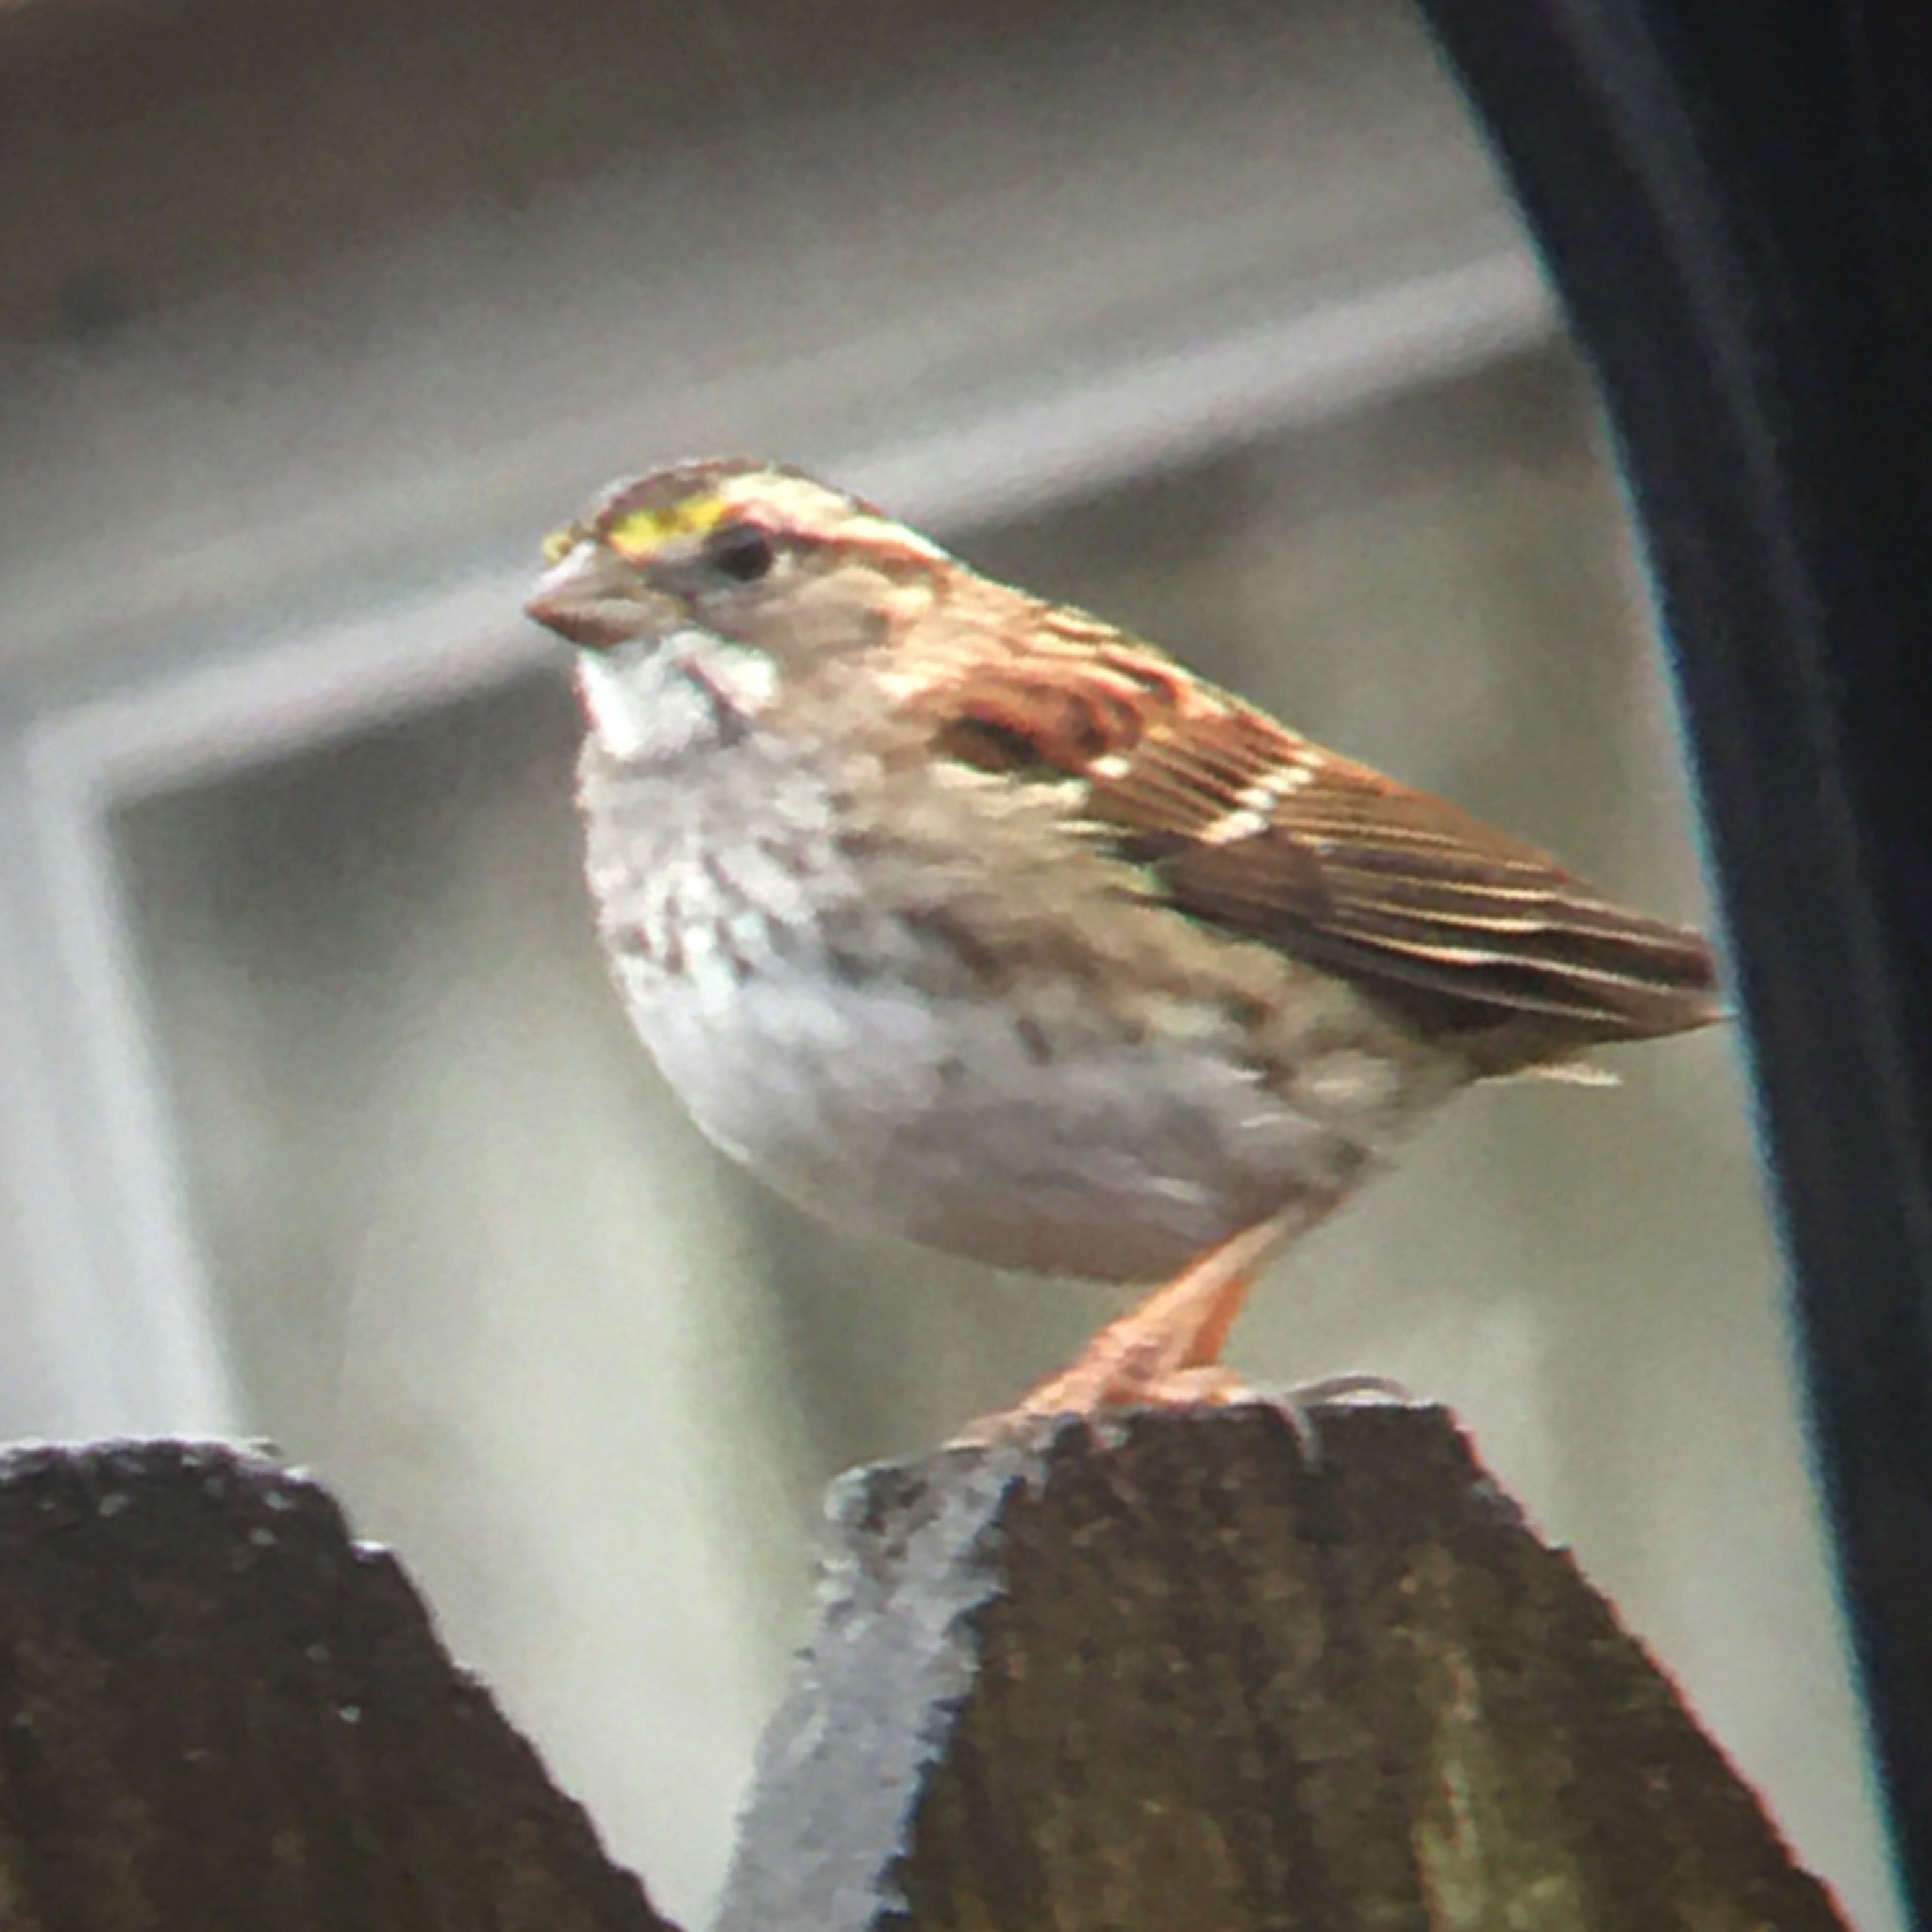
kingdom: Animalia
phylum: Chordata
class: Aves
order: Passeriformes
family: Passerellidae
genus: Zonotrichia
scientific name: Zonotrichia albicollis
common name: White-throated sparrow
